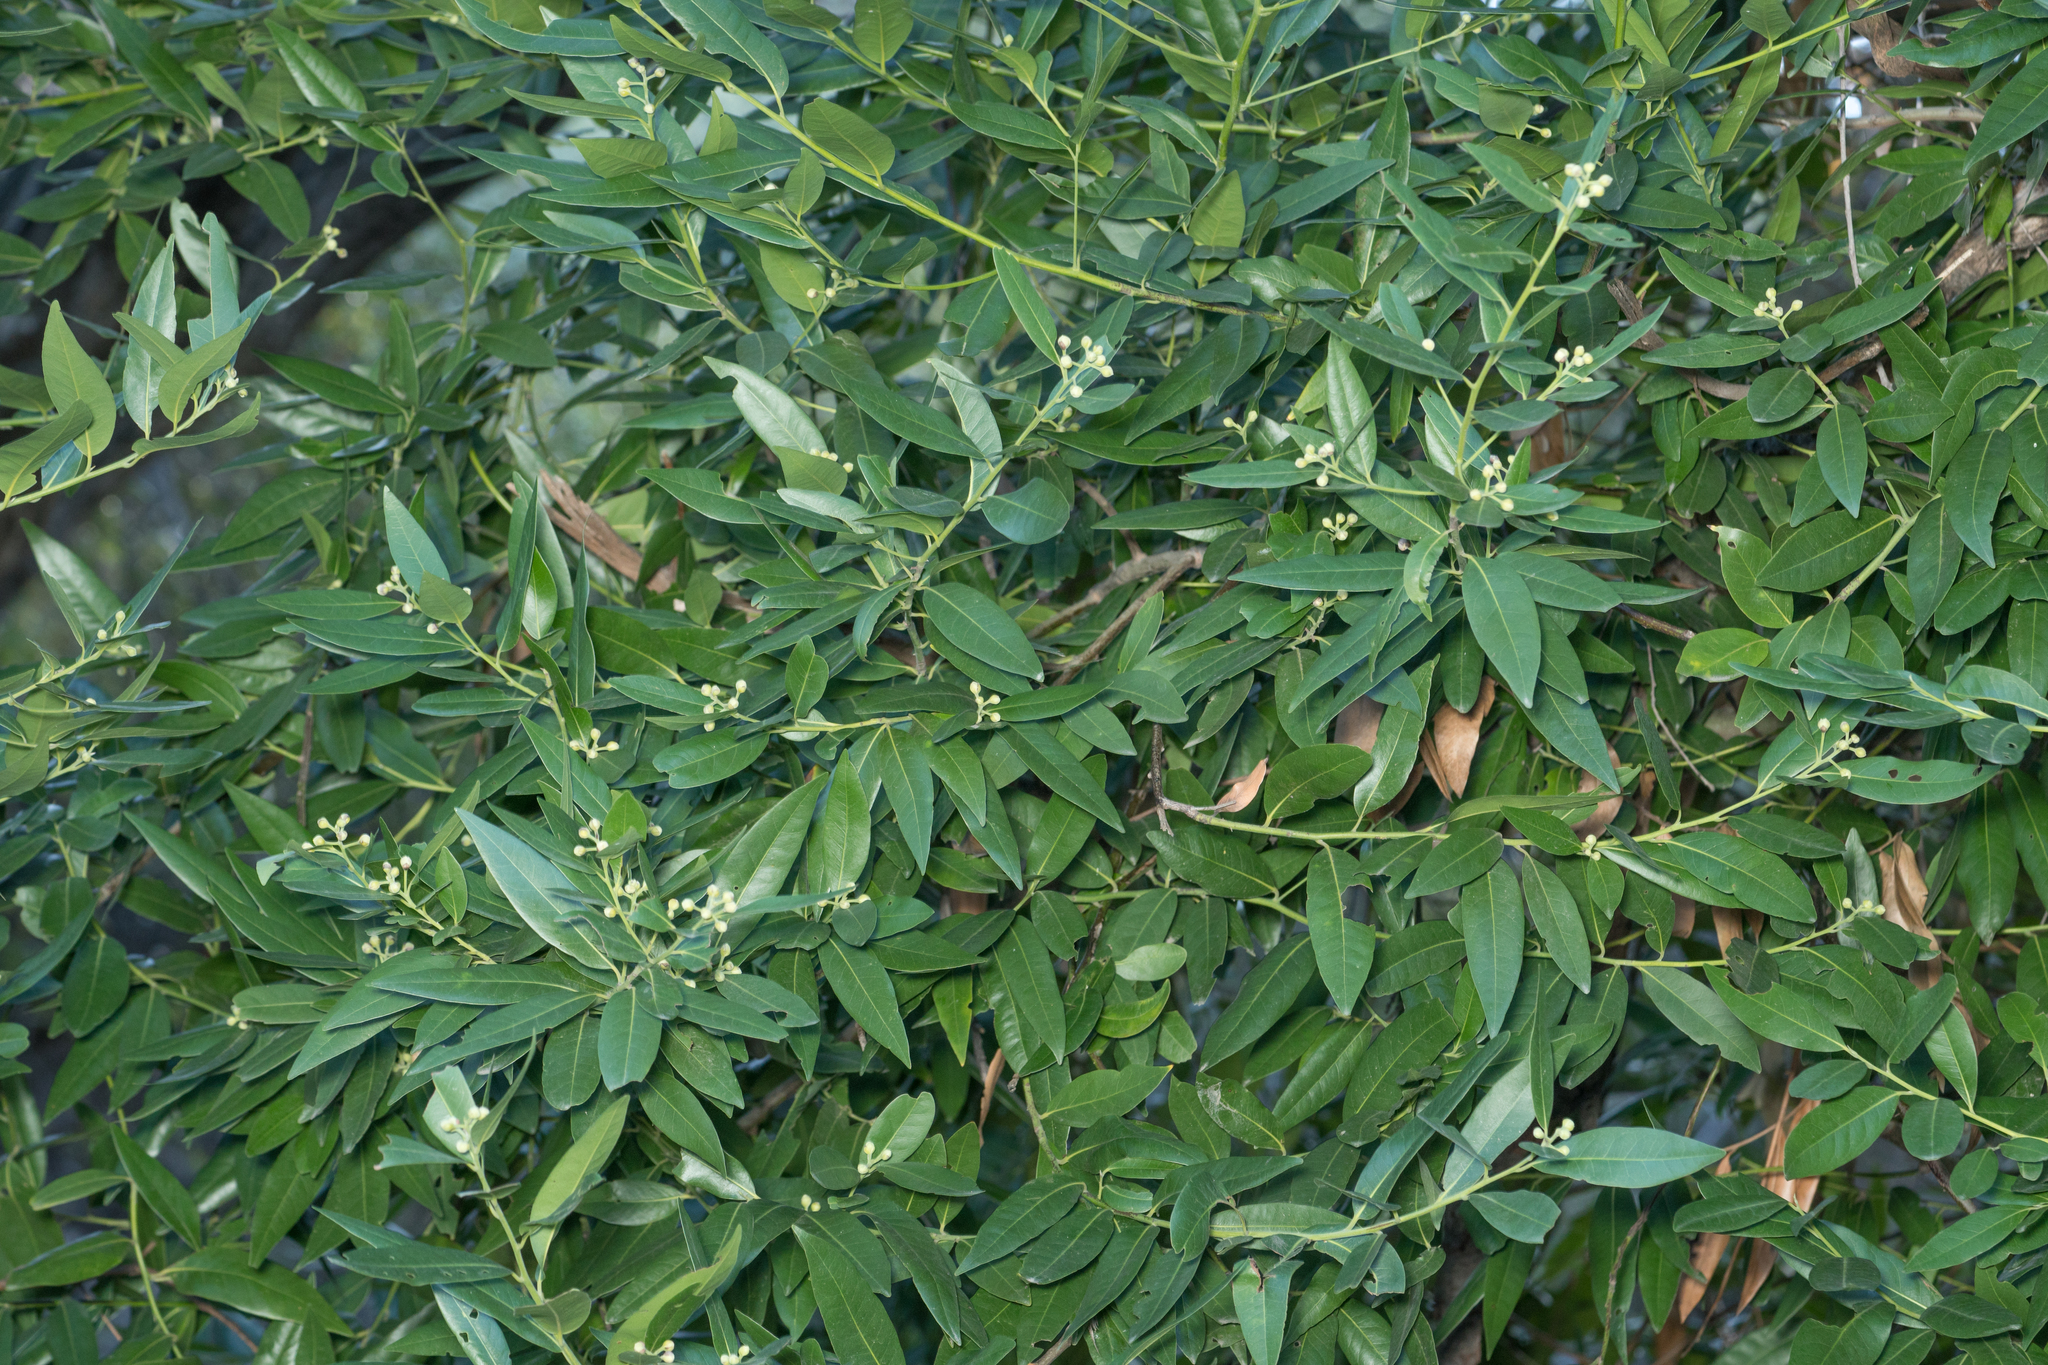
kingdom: Plantae
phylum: Tracheophyta
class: Magnoliopsida
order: Laurales
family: Lauraceae
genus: Umbellularia
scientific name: Umbellularia californica
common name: California bay
